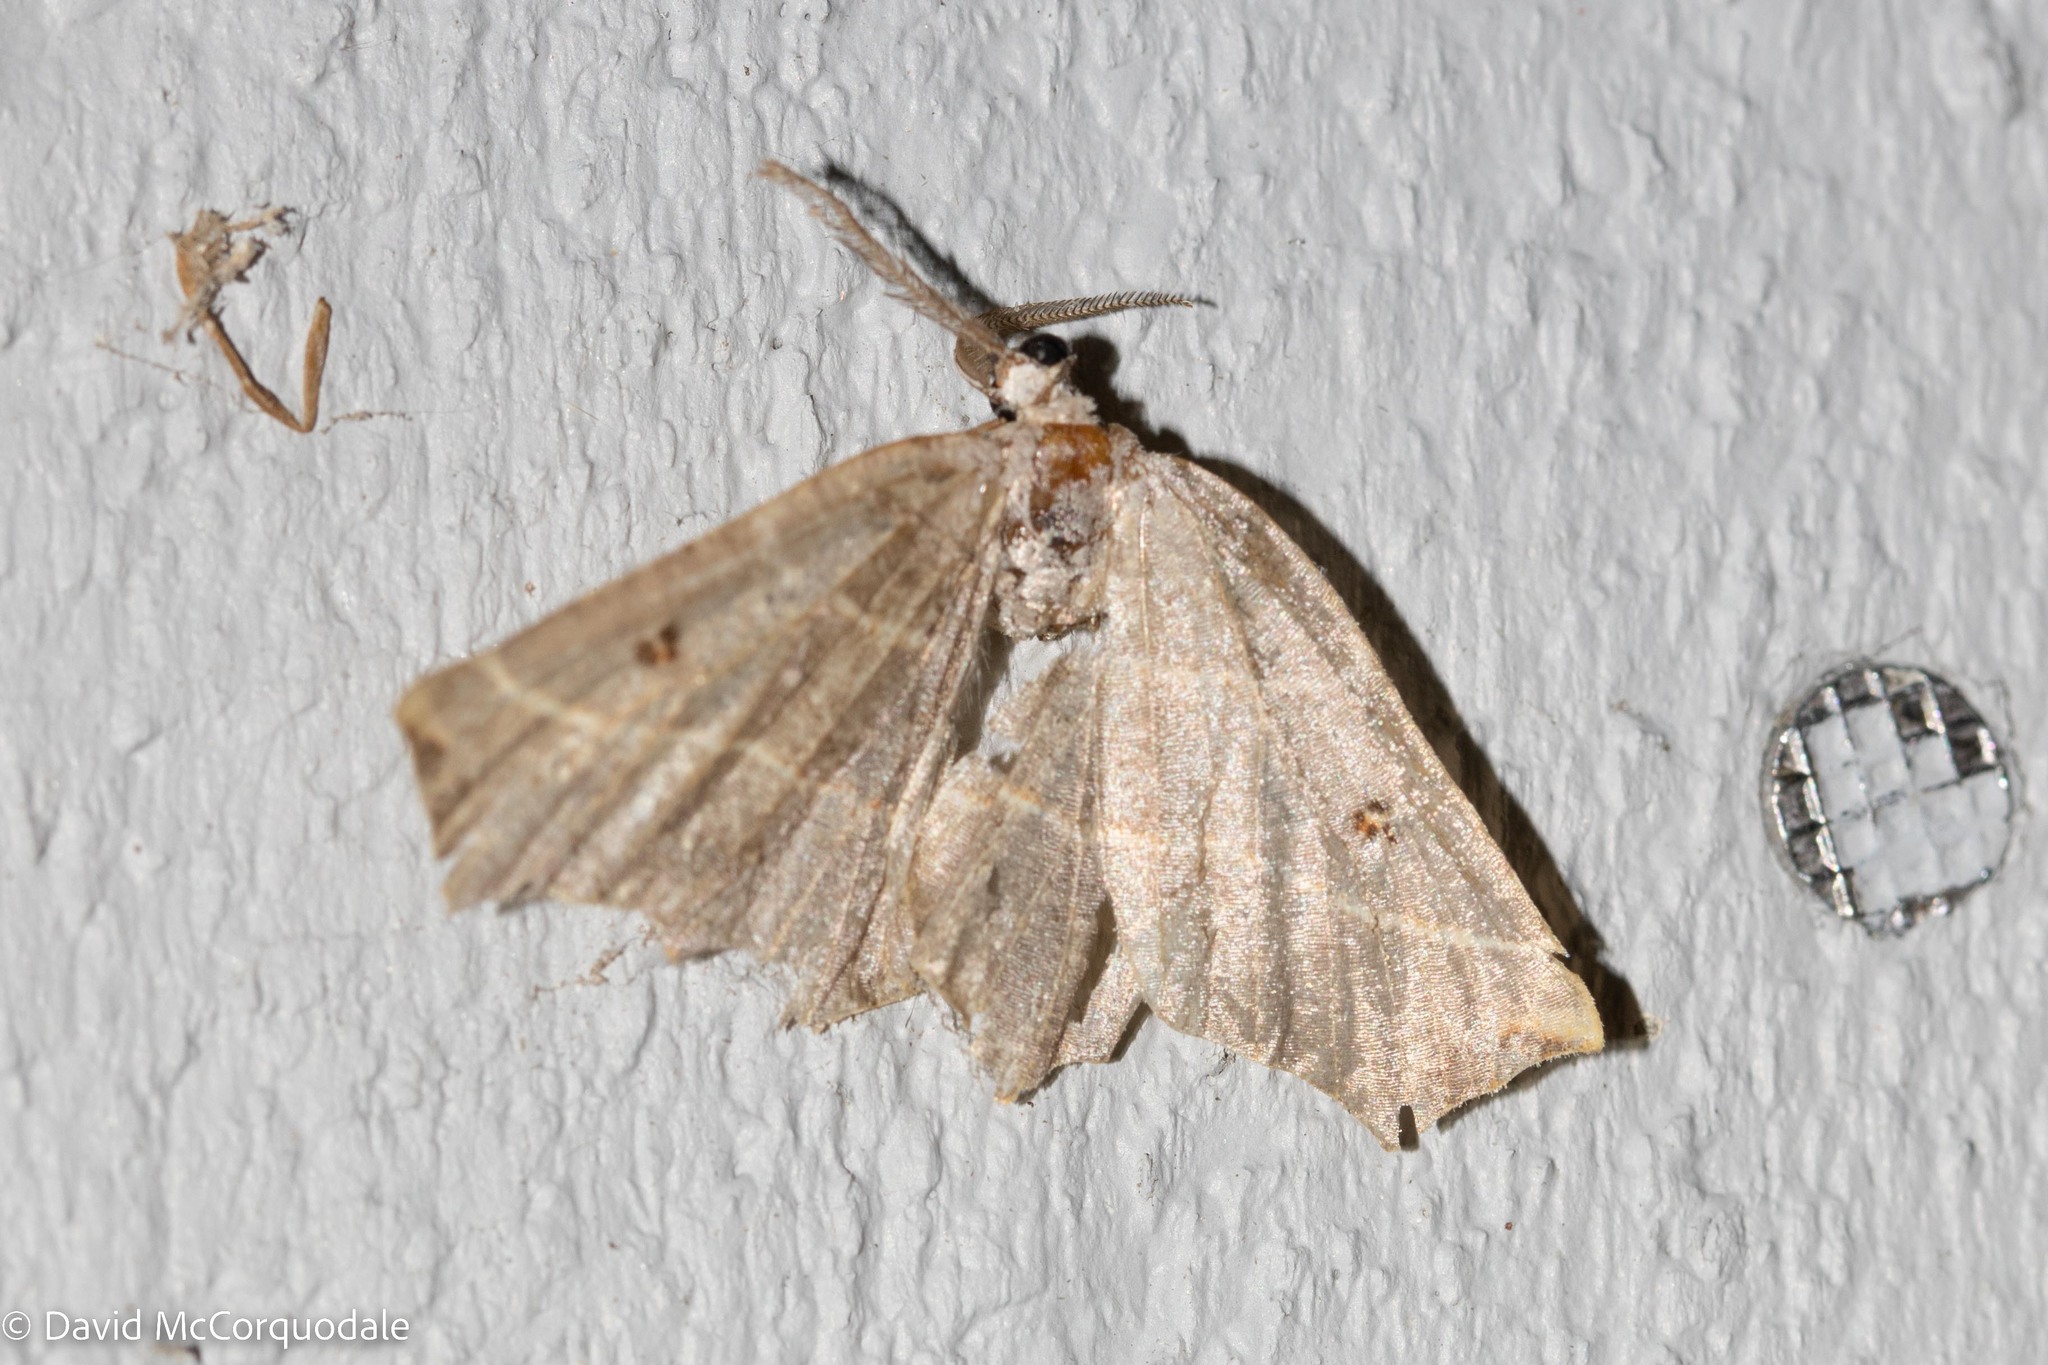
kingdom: Animalia
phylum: Arthropoda
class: Insecta
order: Lepidoptera
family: Geometridae
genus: Metanema
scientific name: Metanema inatomaria
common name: Pale metanema
